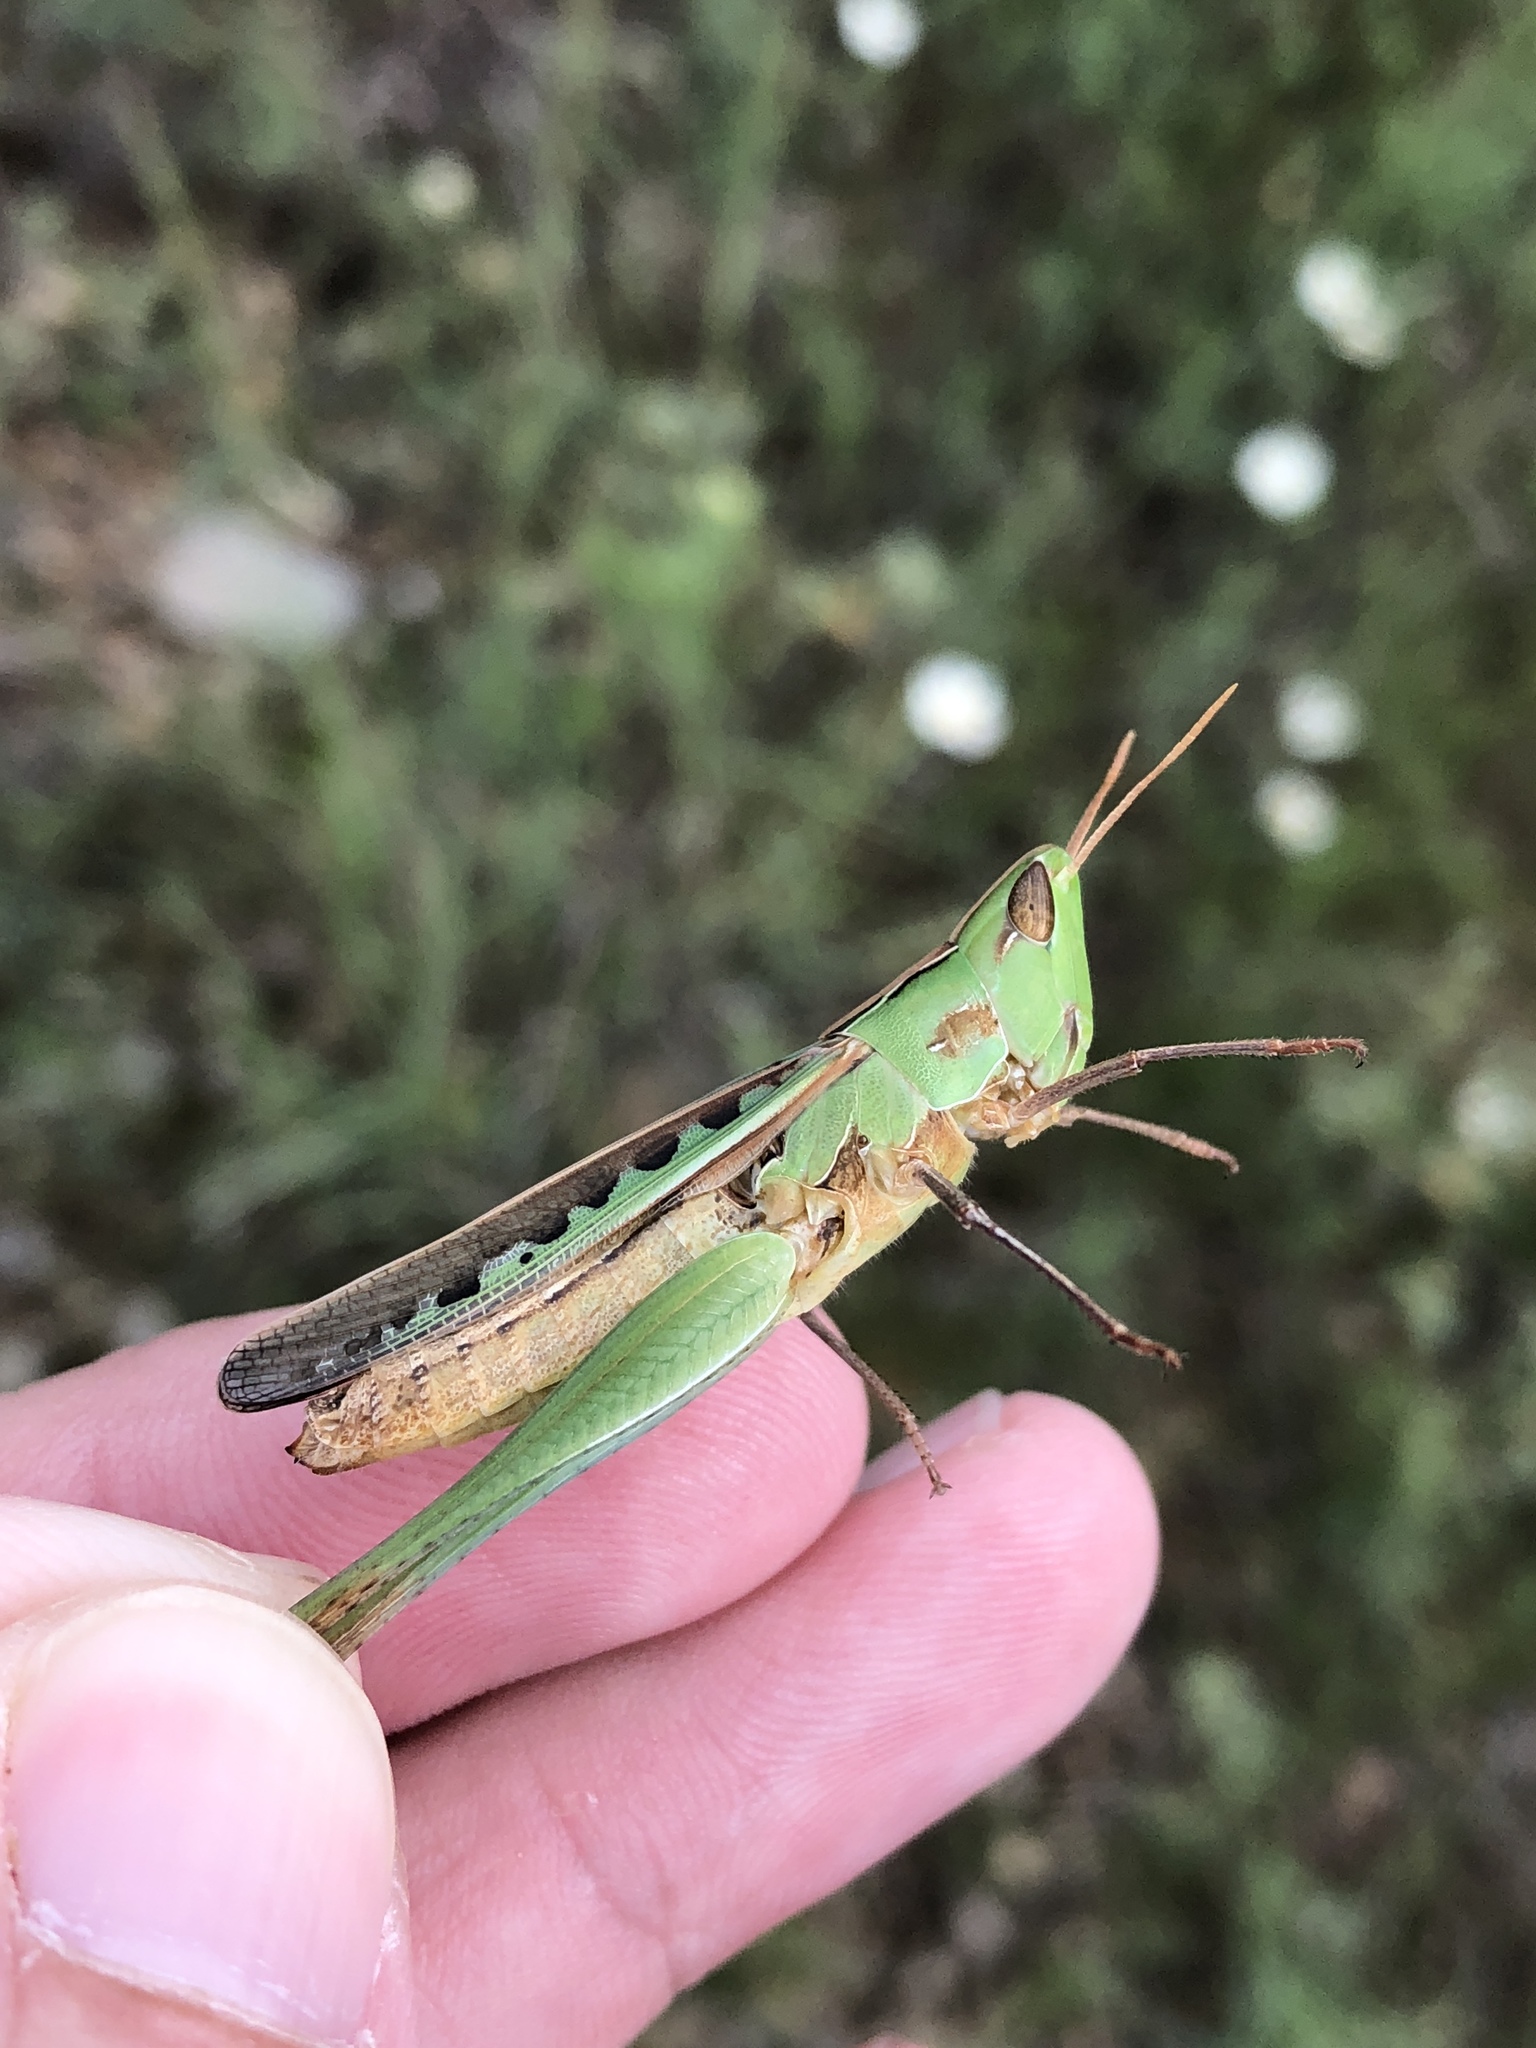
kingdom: Animalia
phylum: Arthropoda
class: Insecta
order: Orthoptera
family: Acrididae
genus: Syrbula
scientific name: Syrbula montezuma
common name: Montezuma's grasshopper
